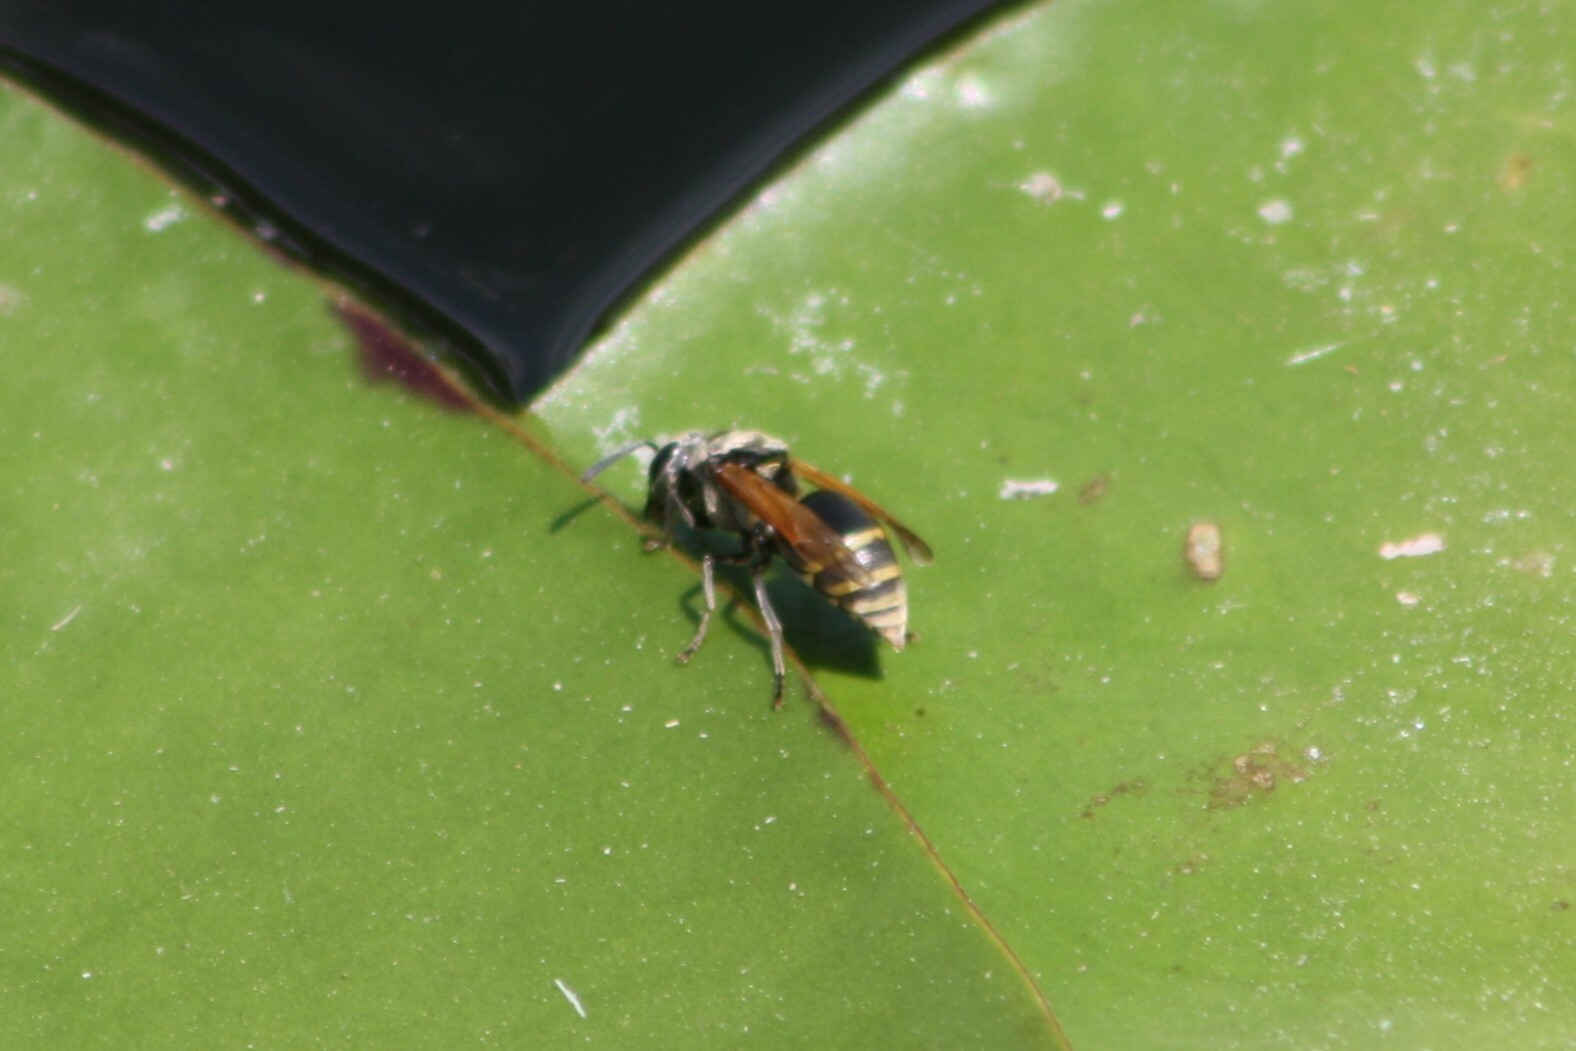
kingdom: Animalia
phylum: Arthropoda
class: Insecta
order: Hymenoptera
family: Vespidae
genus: Brachygastra
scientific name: Brachygastra mellifica
